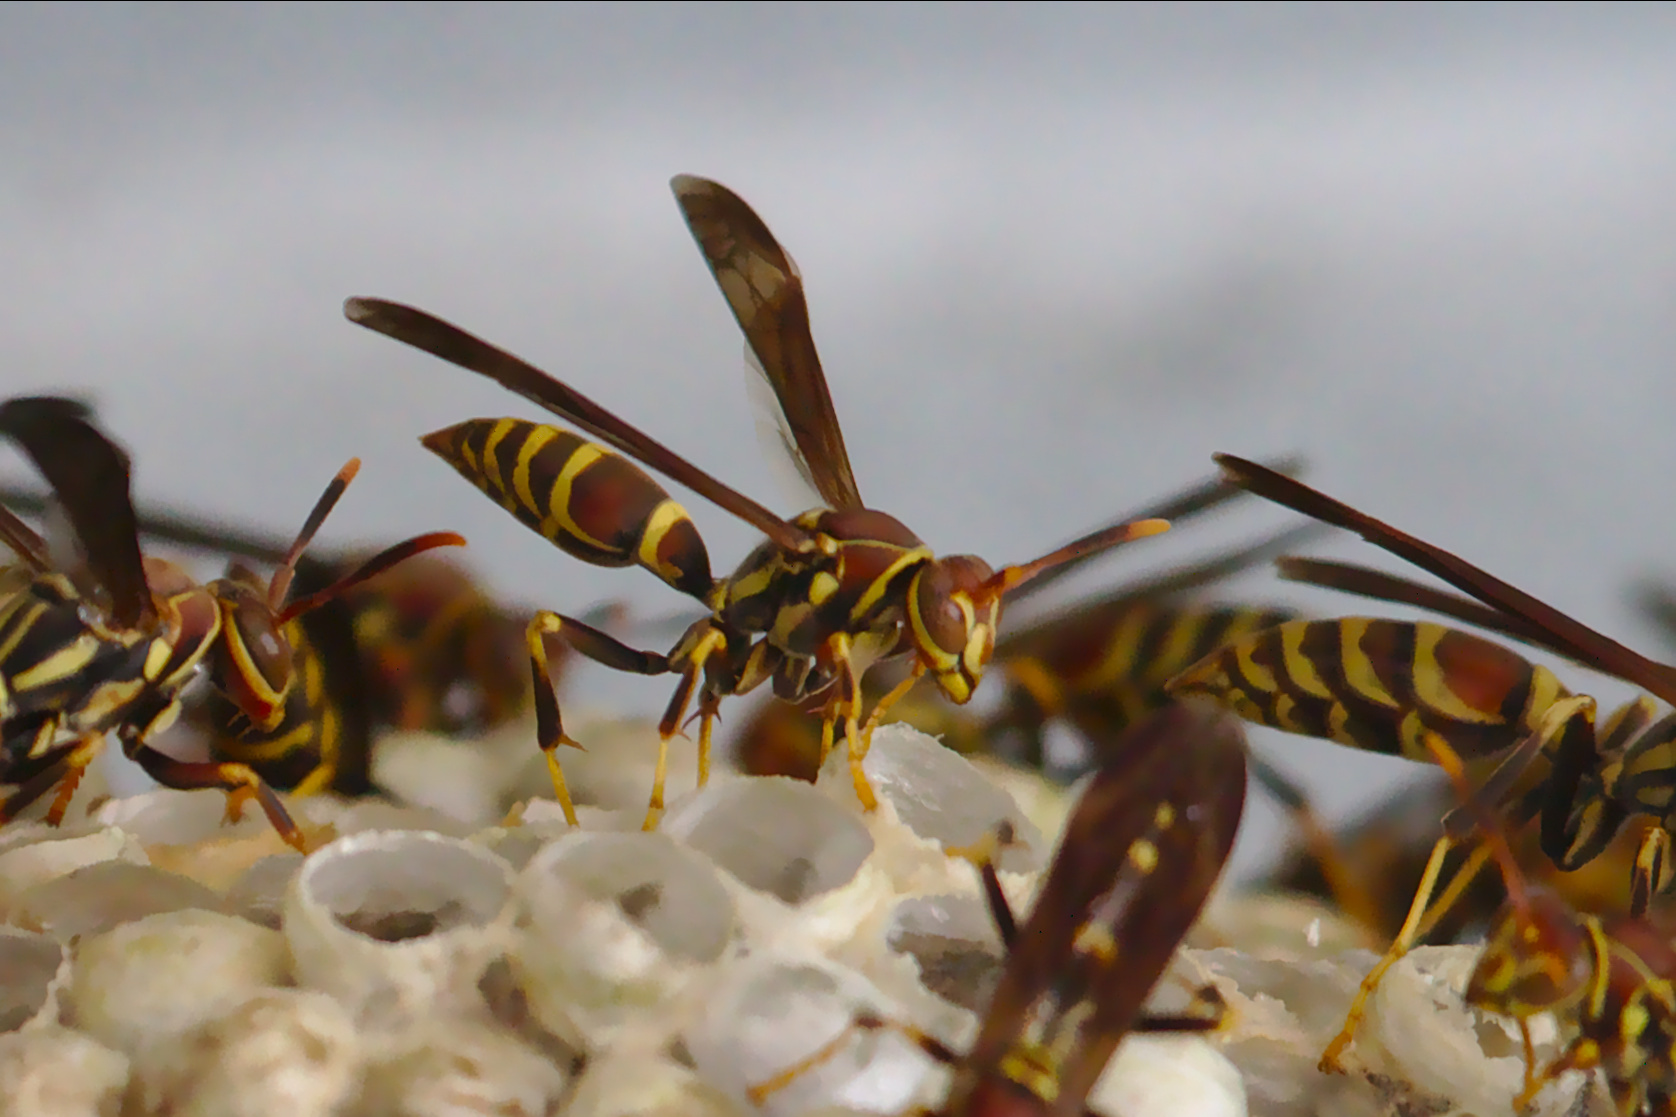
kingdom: Animalia
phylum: Arthropoda
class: Insecta
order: Hymenoptera
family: Eumenidae
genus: Polistes
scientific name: Polistes exclamans
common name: Paper wasp
